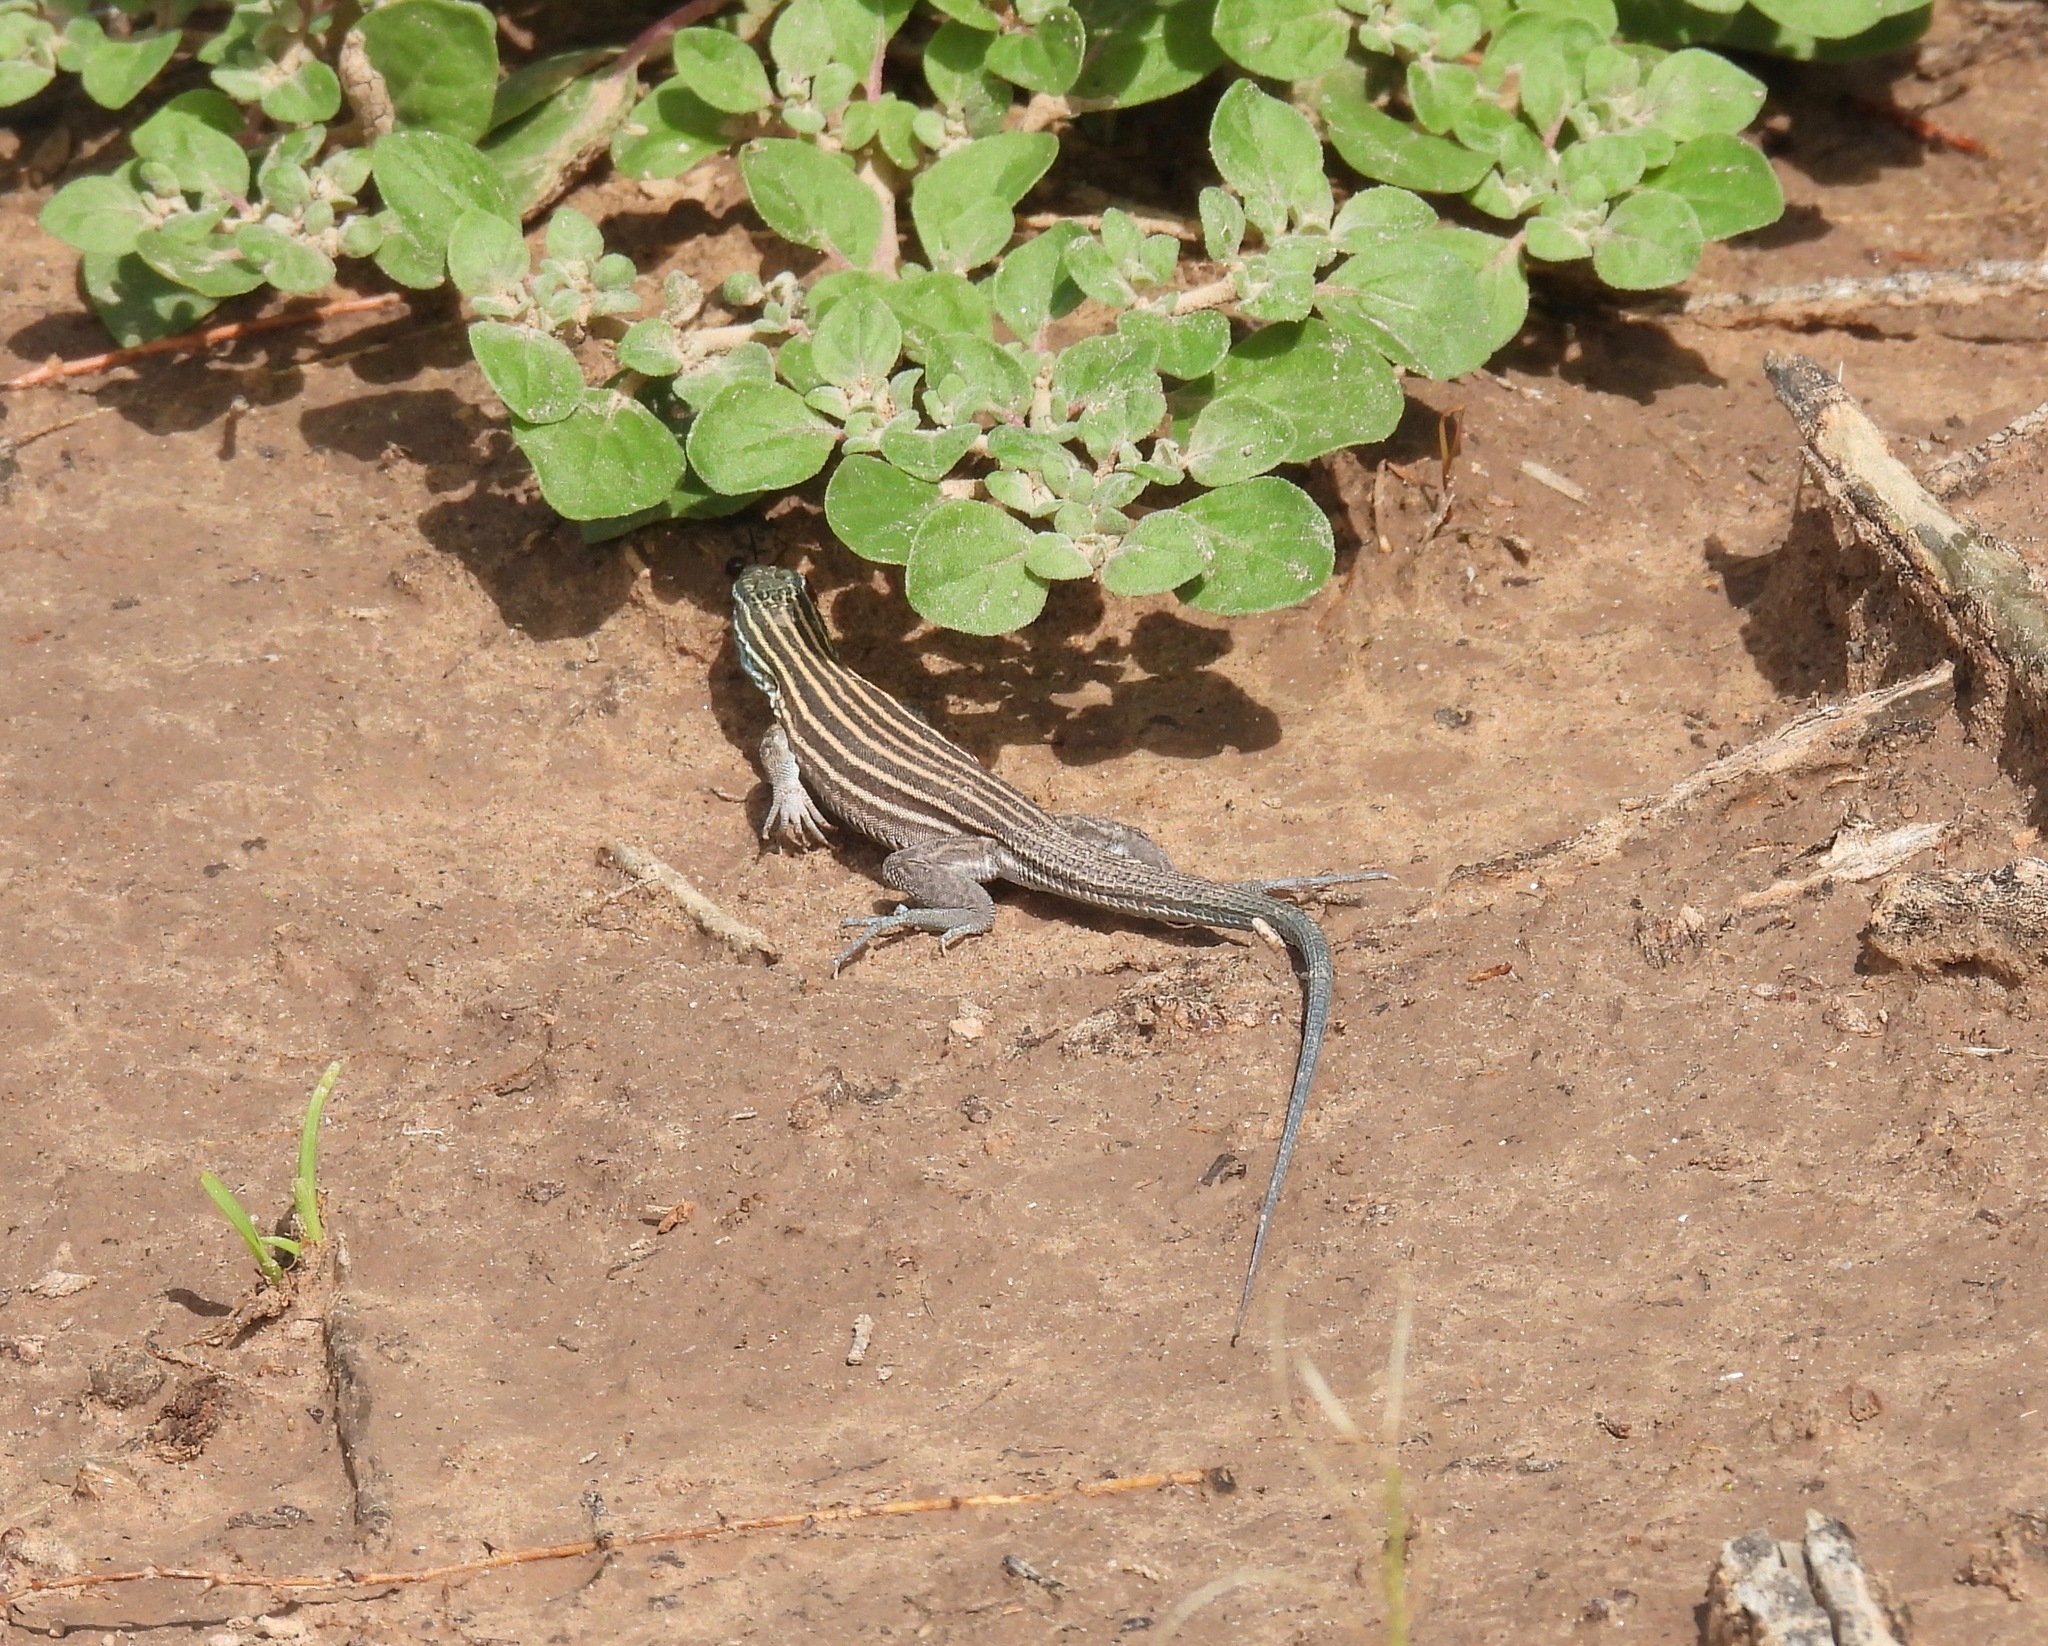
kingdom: Animalia
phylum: Chordata
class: Squamata
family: Teiidae
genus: Aspidoscelis
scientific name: Aspidoscelis inornatus
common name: Little striped whiptail
